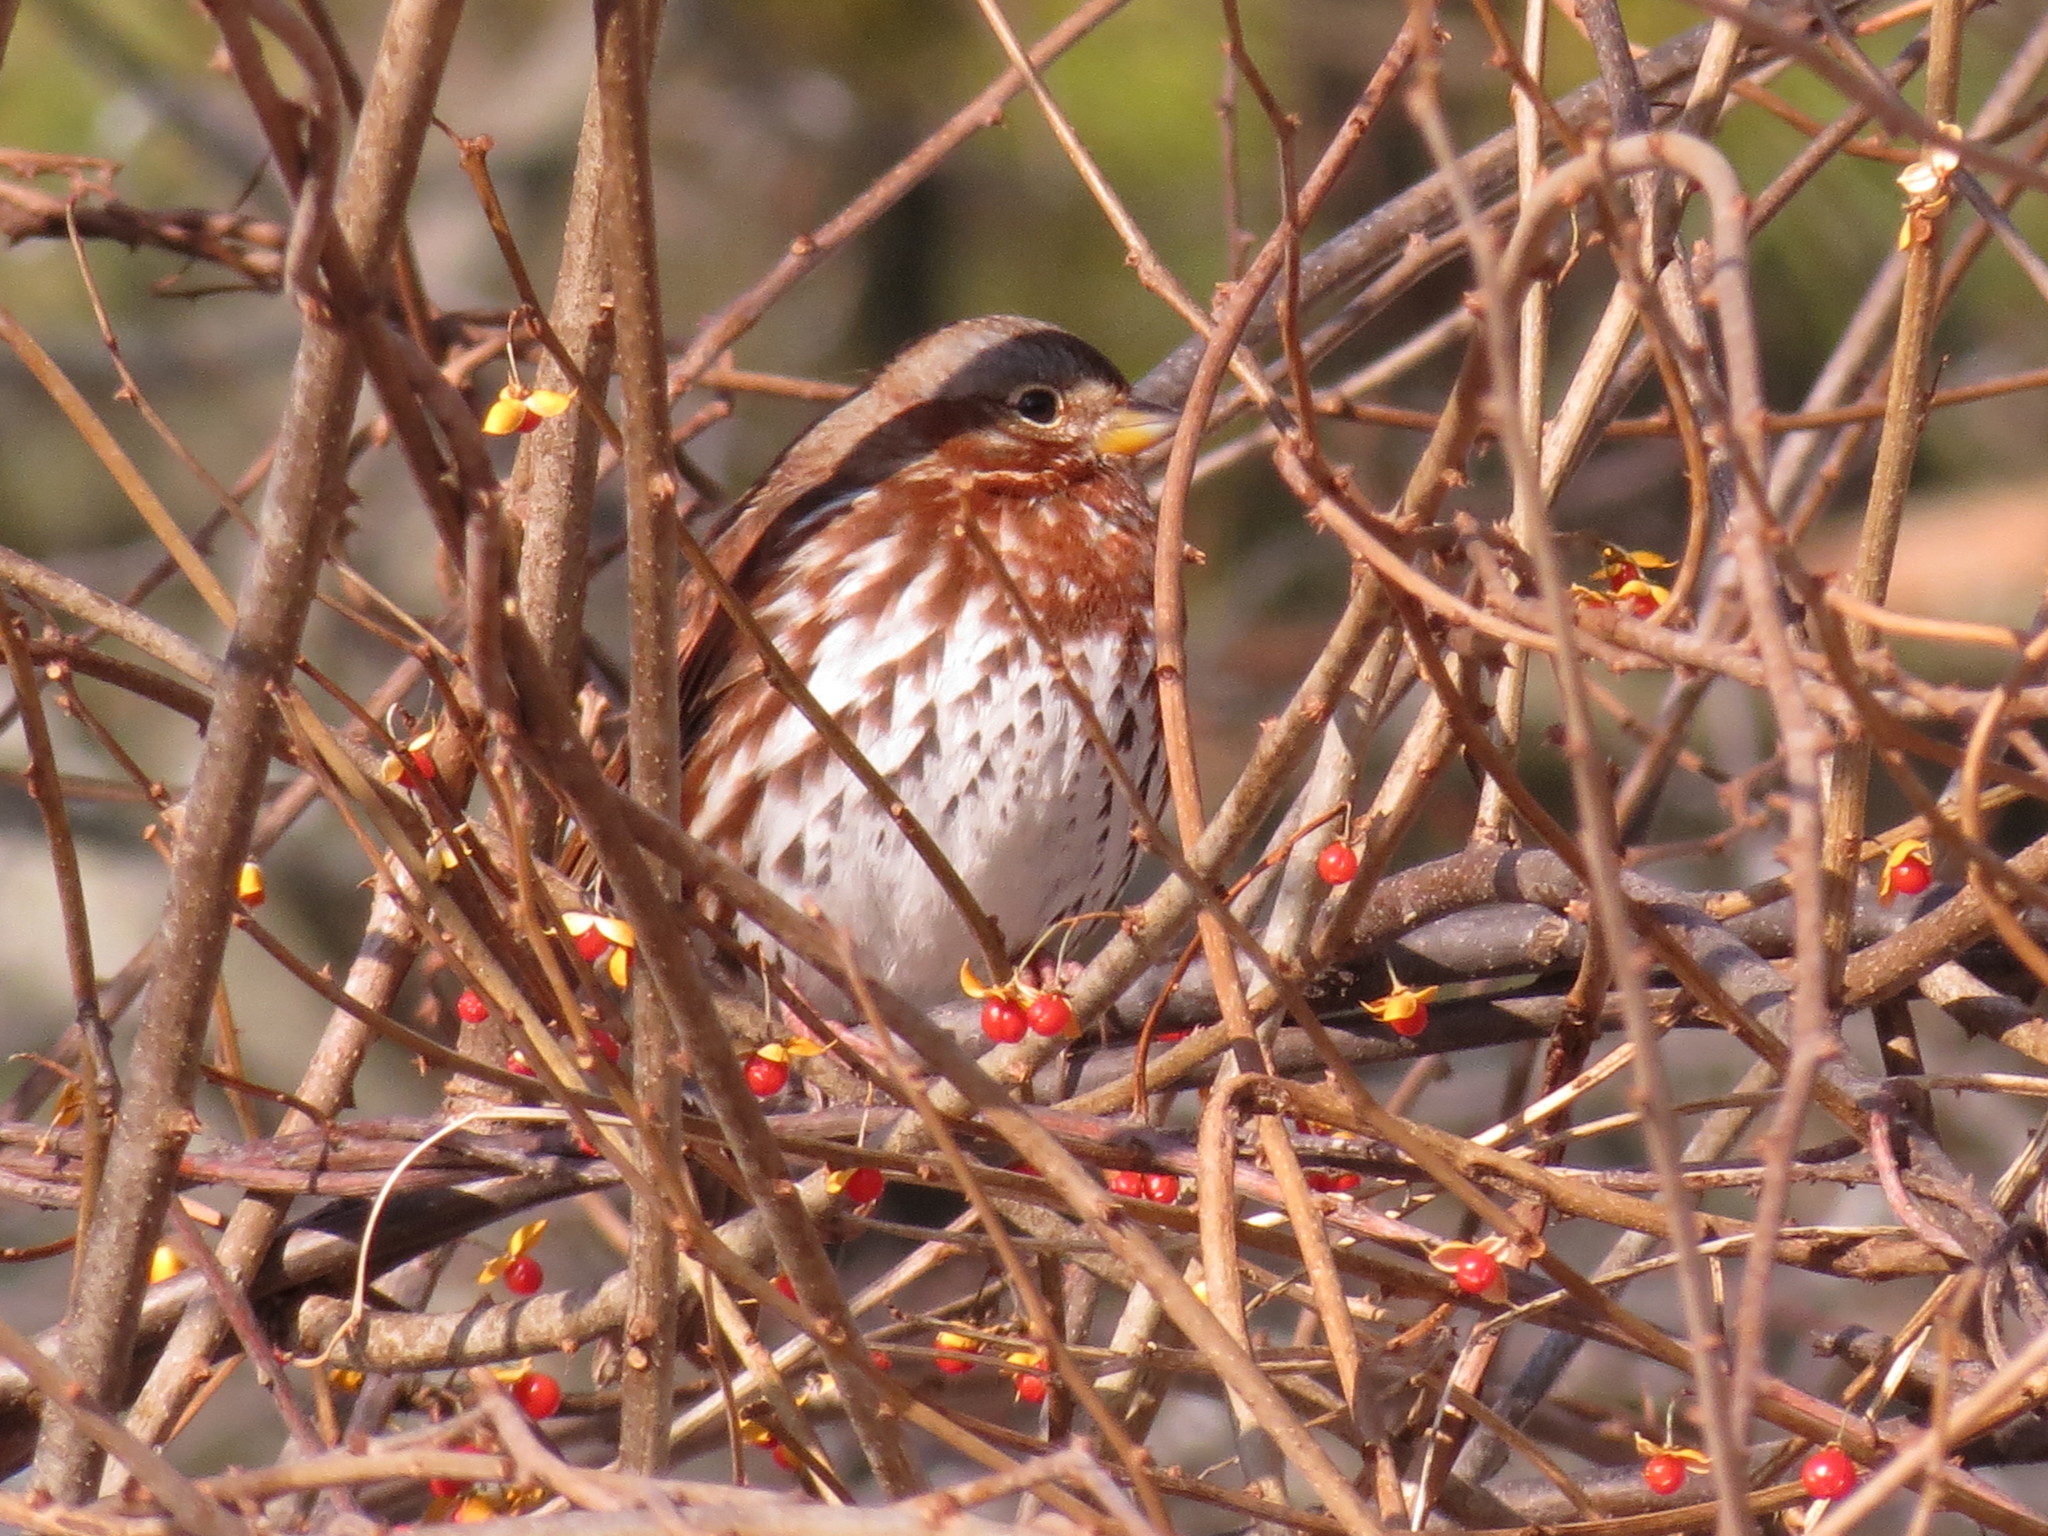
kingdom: Animalia
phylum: Chordata
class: Aves
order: Passeriformes
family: Passerellidae
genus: Passerella
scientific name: Passerella iliaca
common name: Fox sparrow
